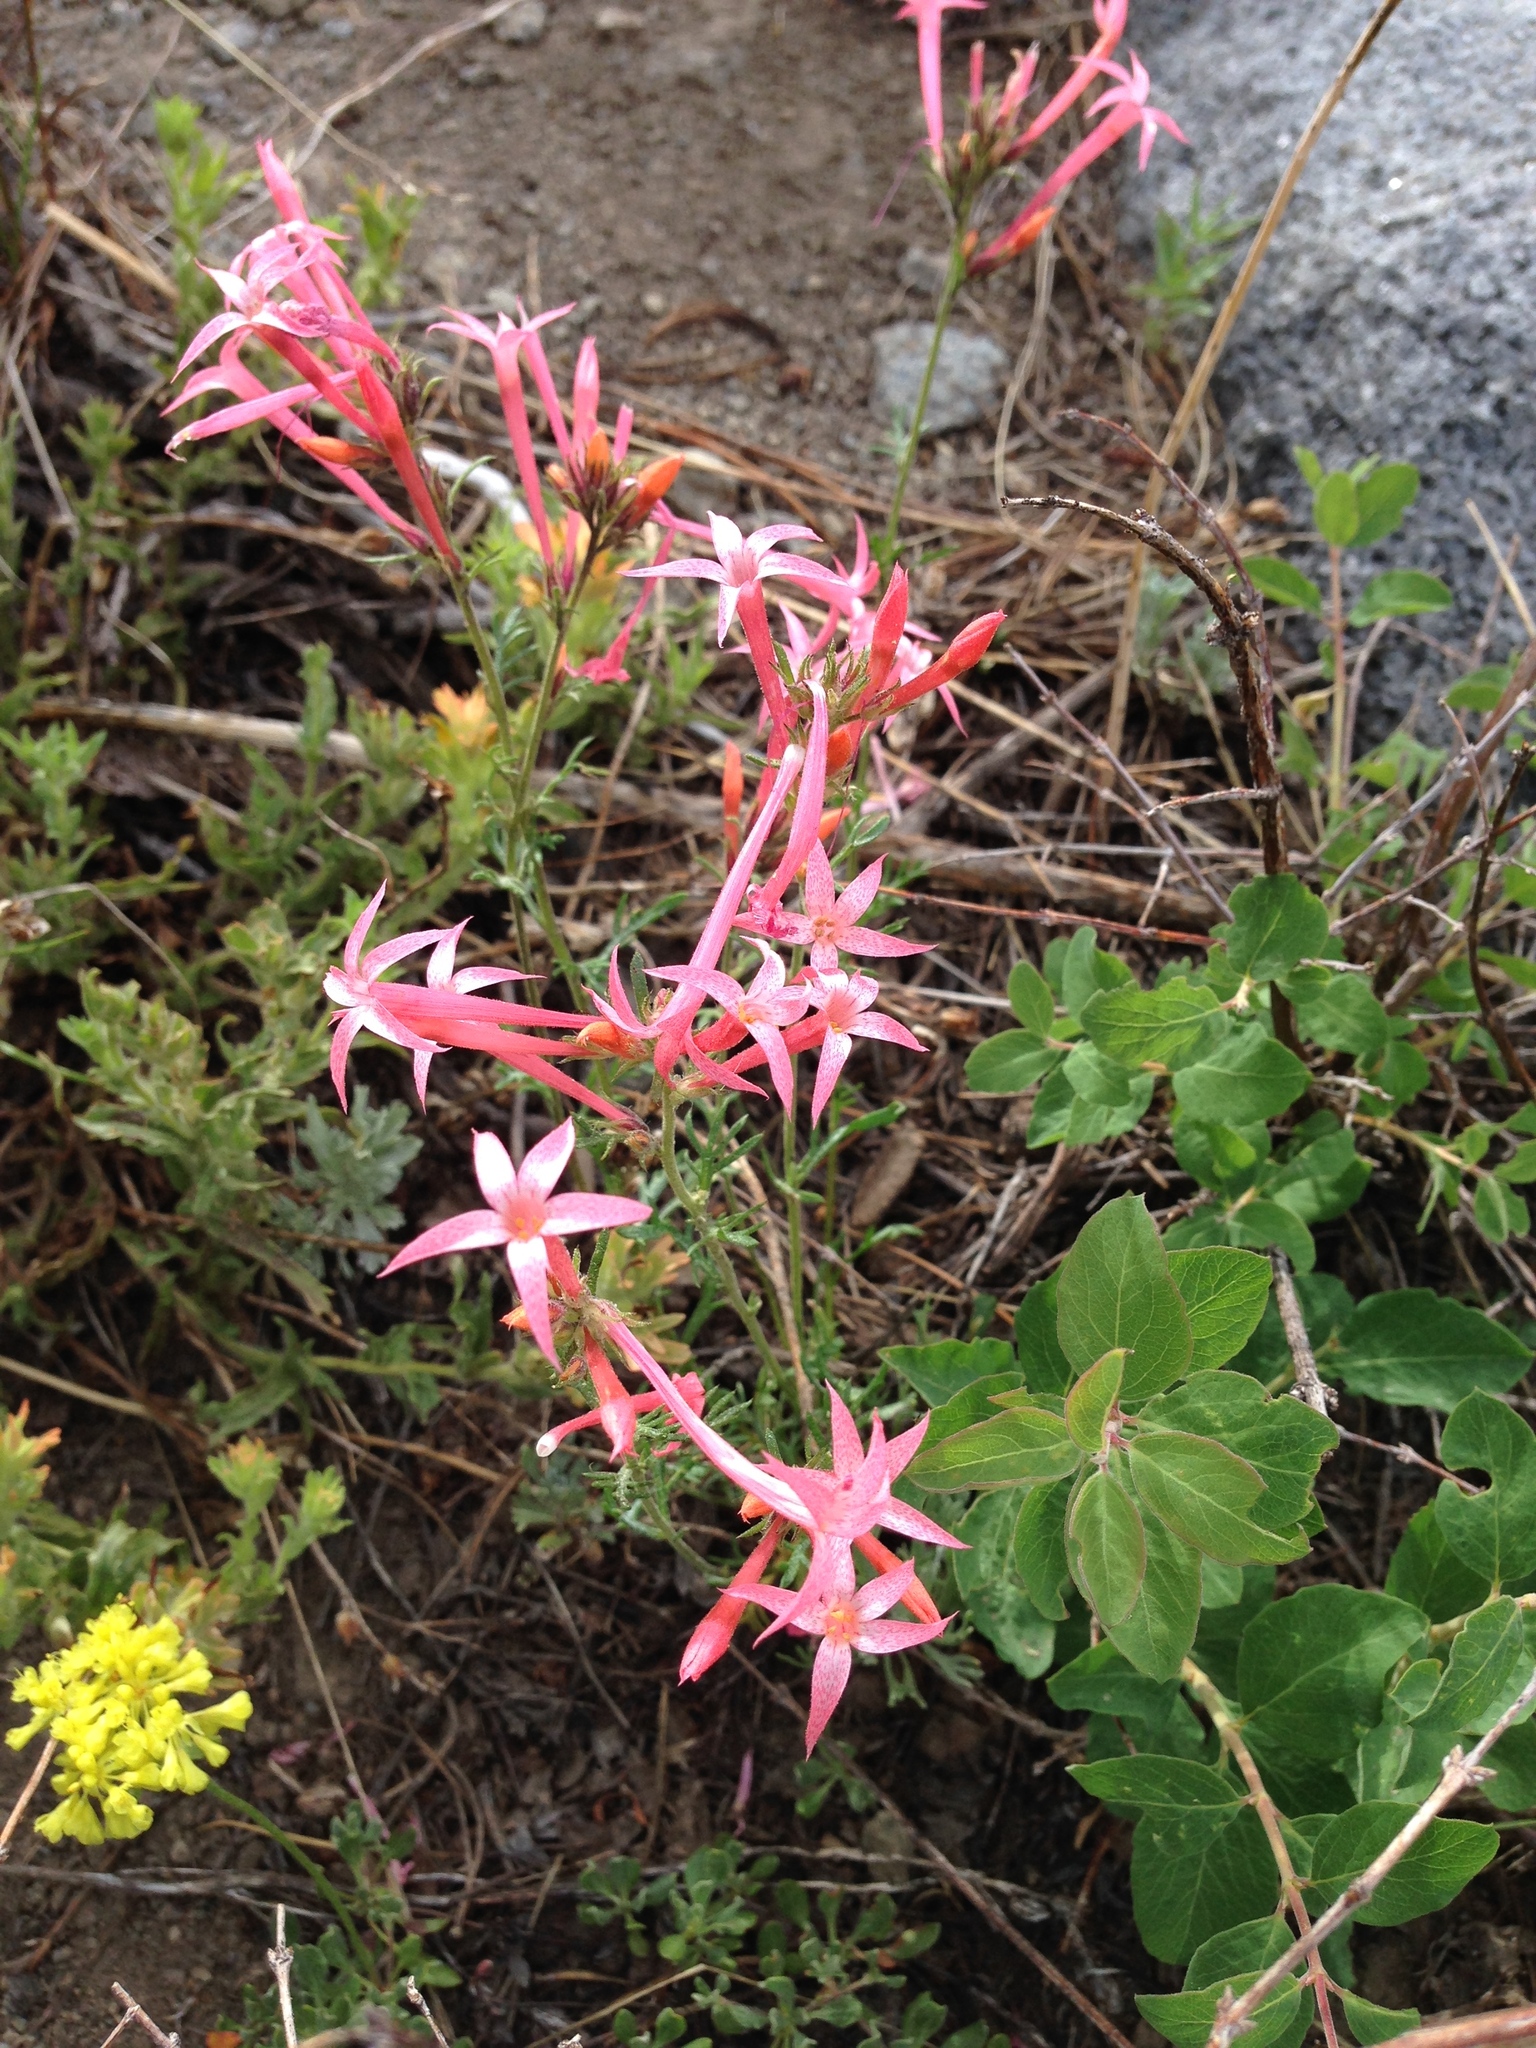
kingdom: Plantae
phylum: Tracheophyta
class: Magnoliopsida
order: Ericales
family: Polemoniaceae
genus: Ipomopsis
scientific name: Ipomopsis tenuituba
